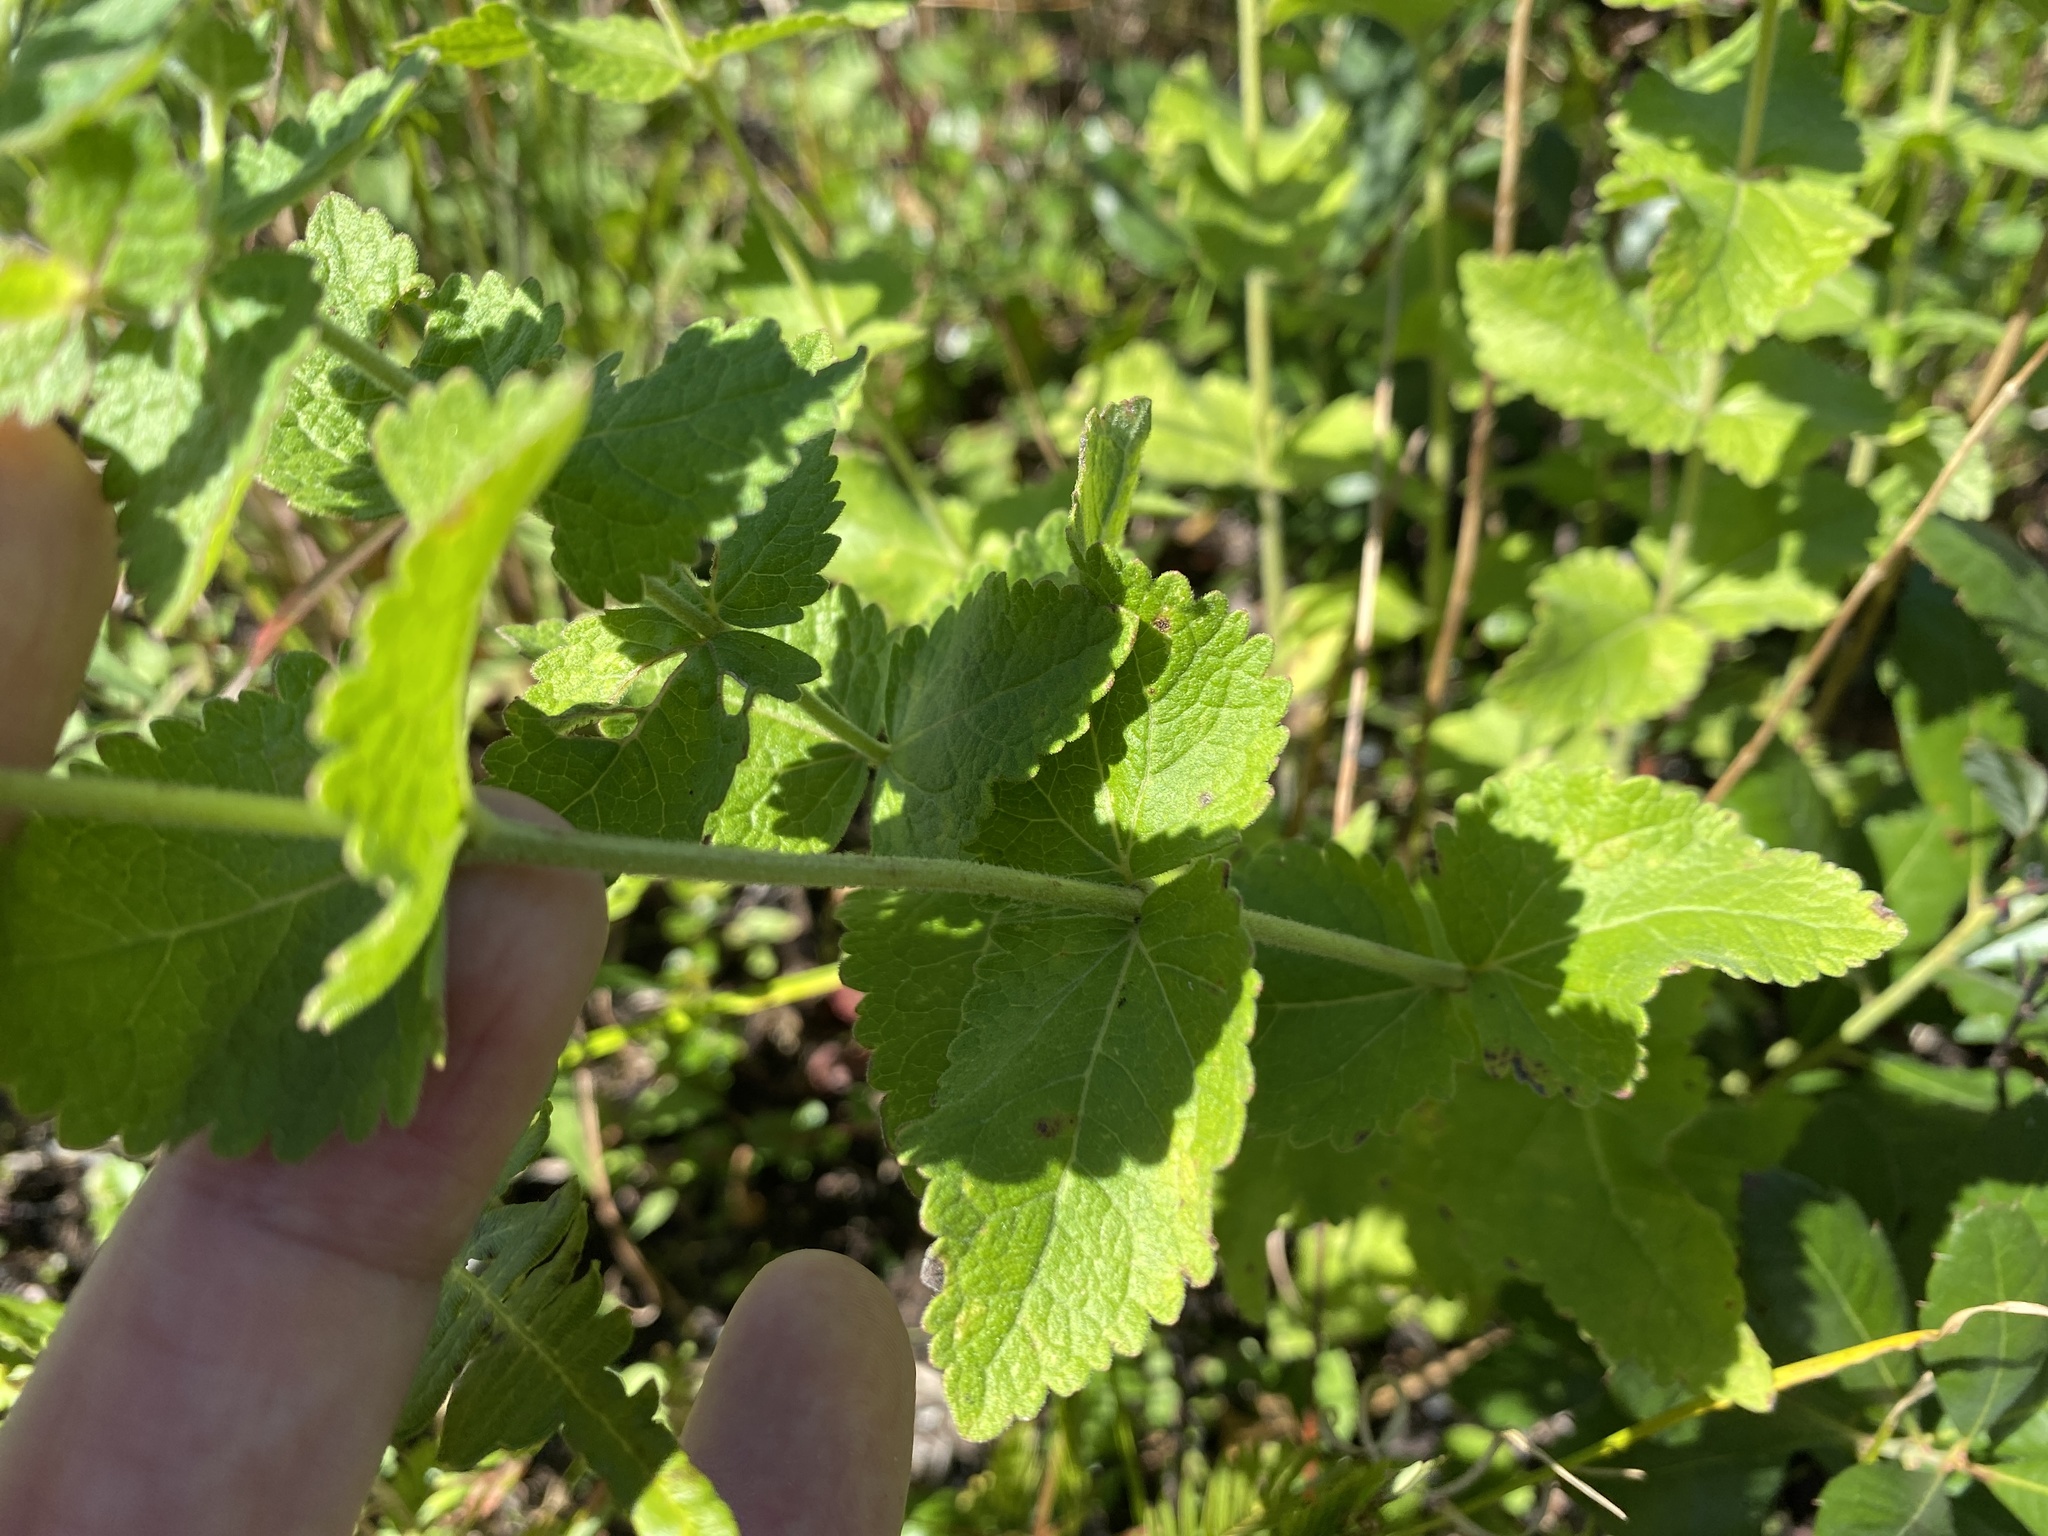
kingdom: Plantae
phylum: Tracheophyta
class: Magnoliopsida
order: Asterales
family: Asteraceae
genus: Eupatorium
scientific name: Eupatorium rotundifolium
